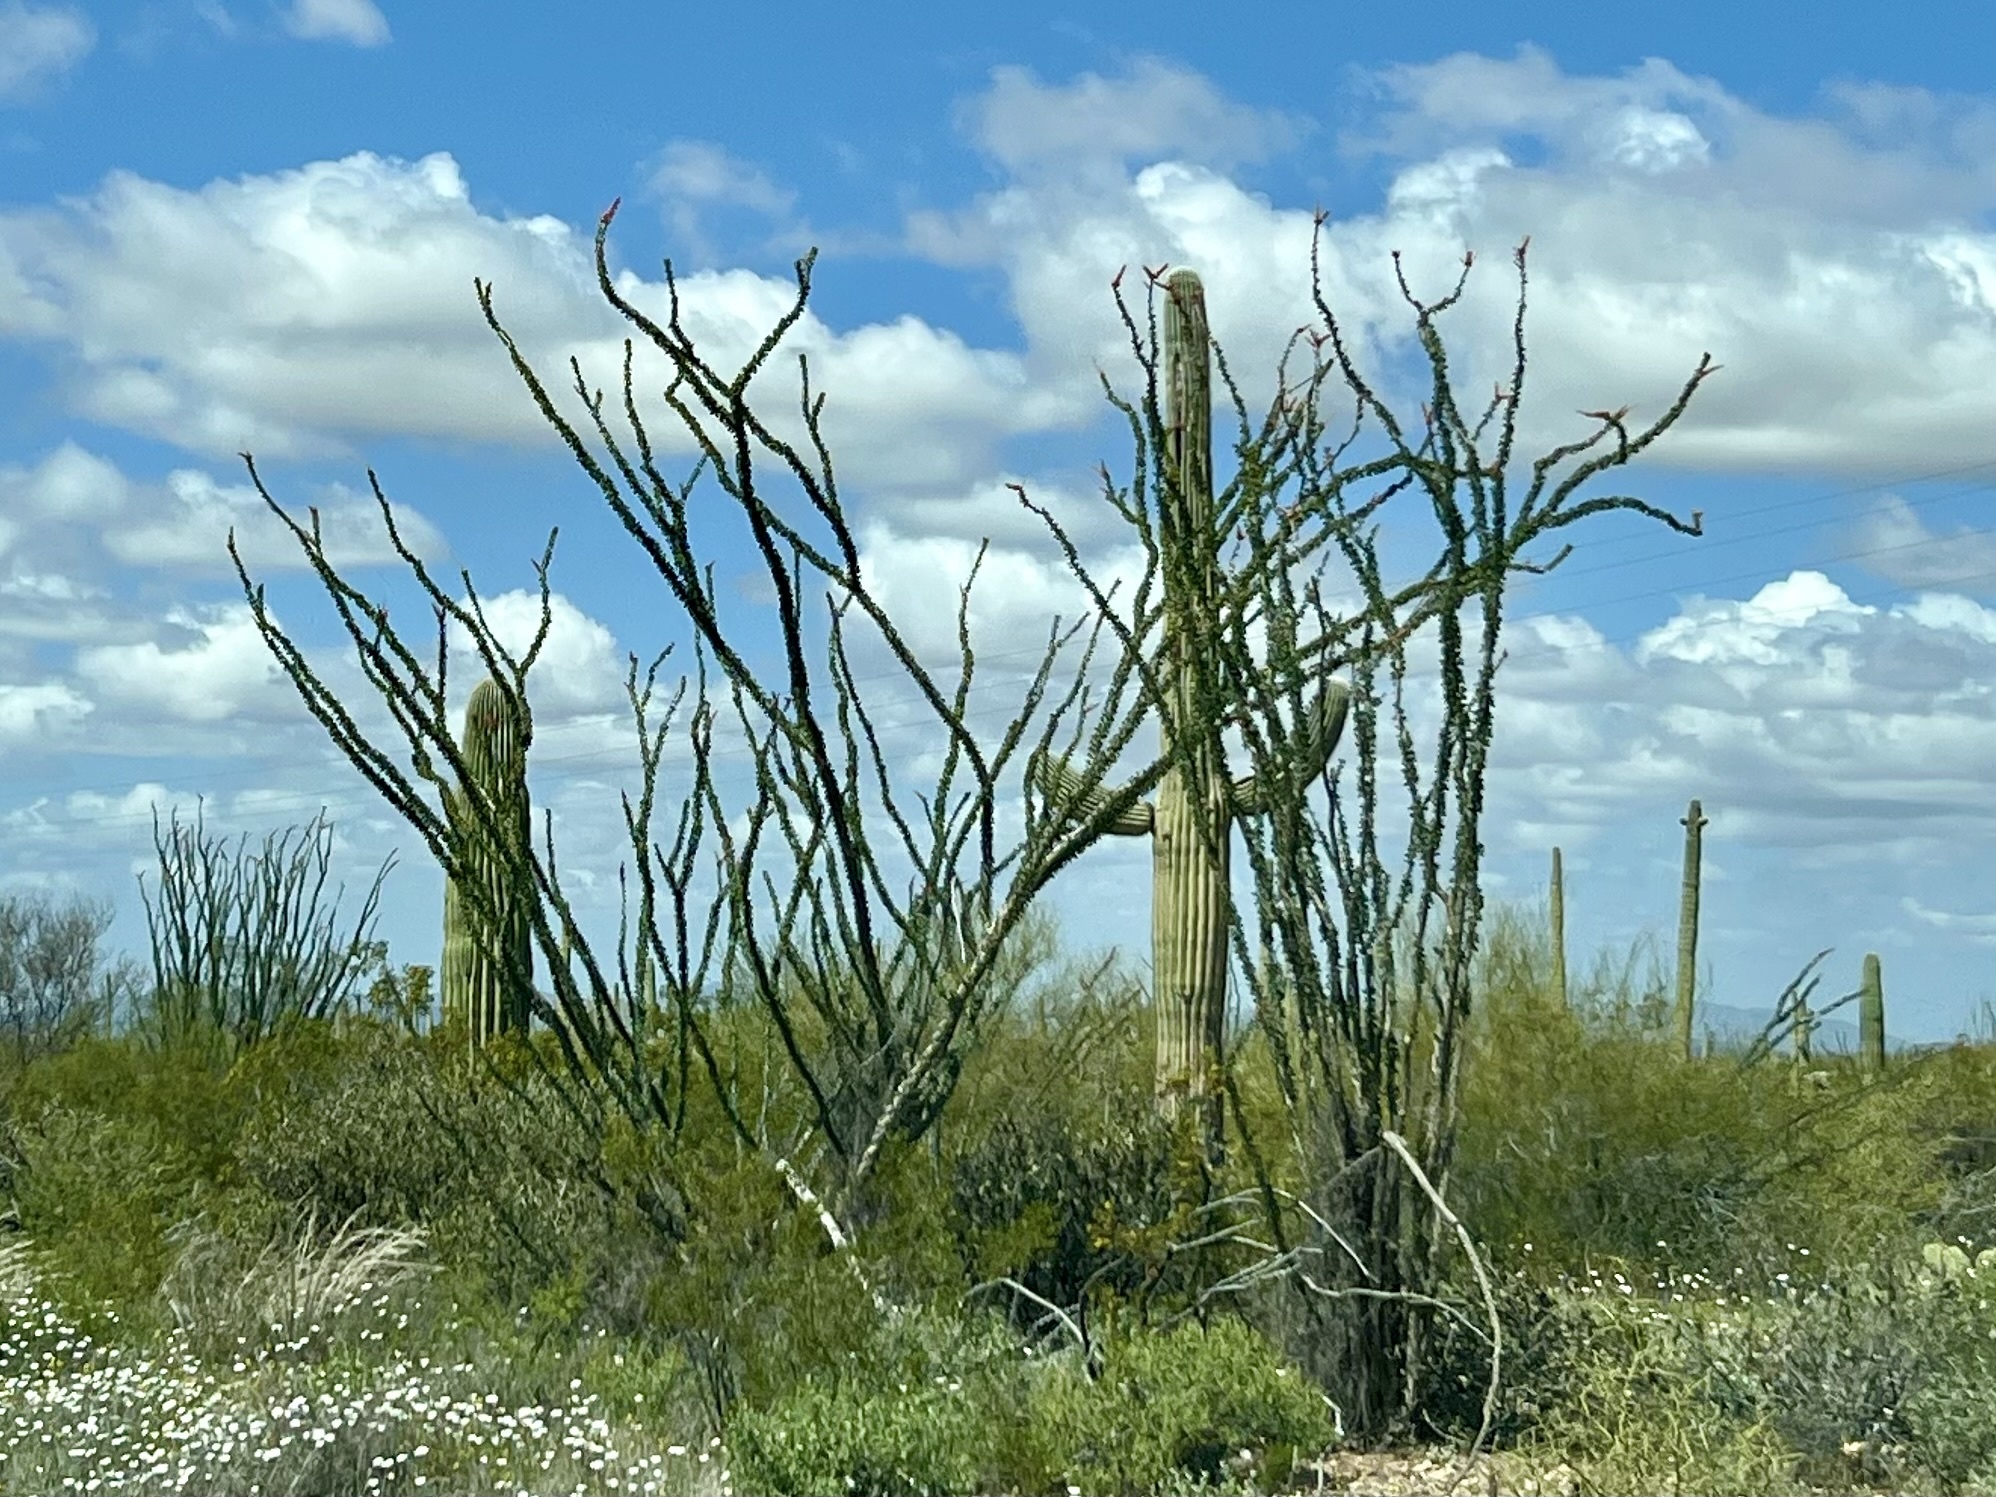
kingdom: Plantae
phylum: Tracheophyta
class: Magnoliopsida
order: Ericales
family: Fouquieriaceae
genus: Fouquieria
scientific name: Fouquieria splendens
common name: Vine-cactus
